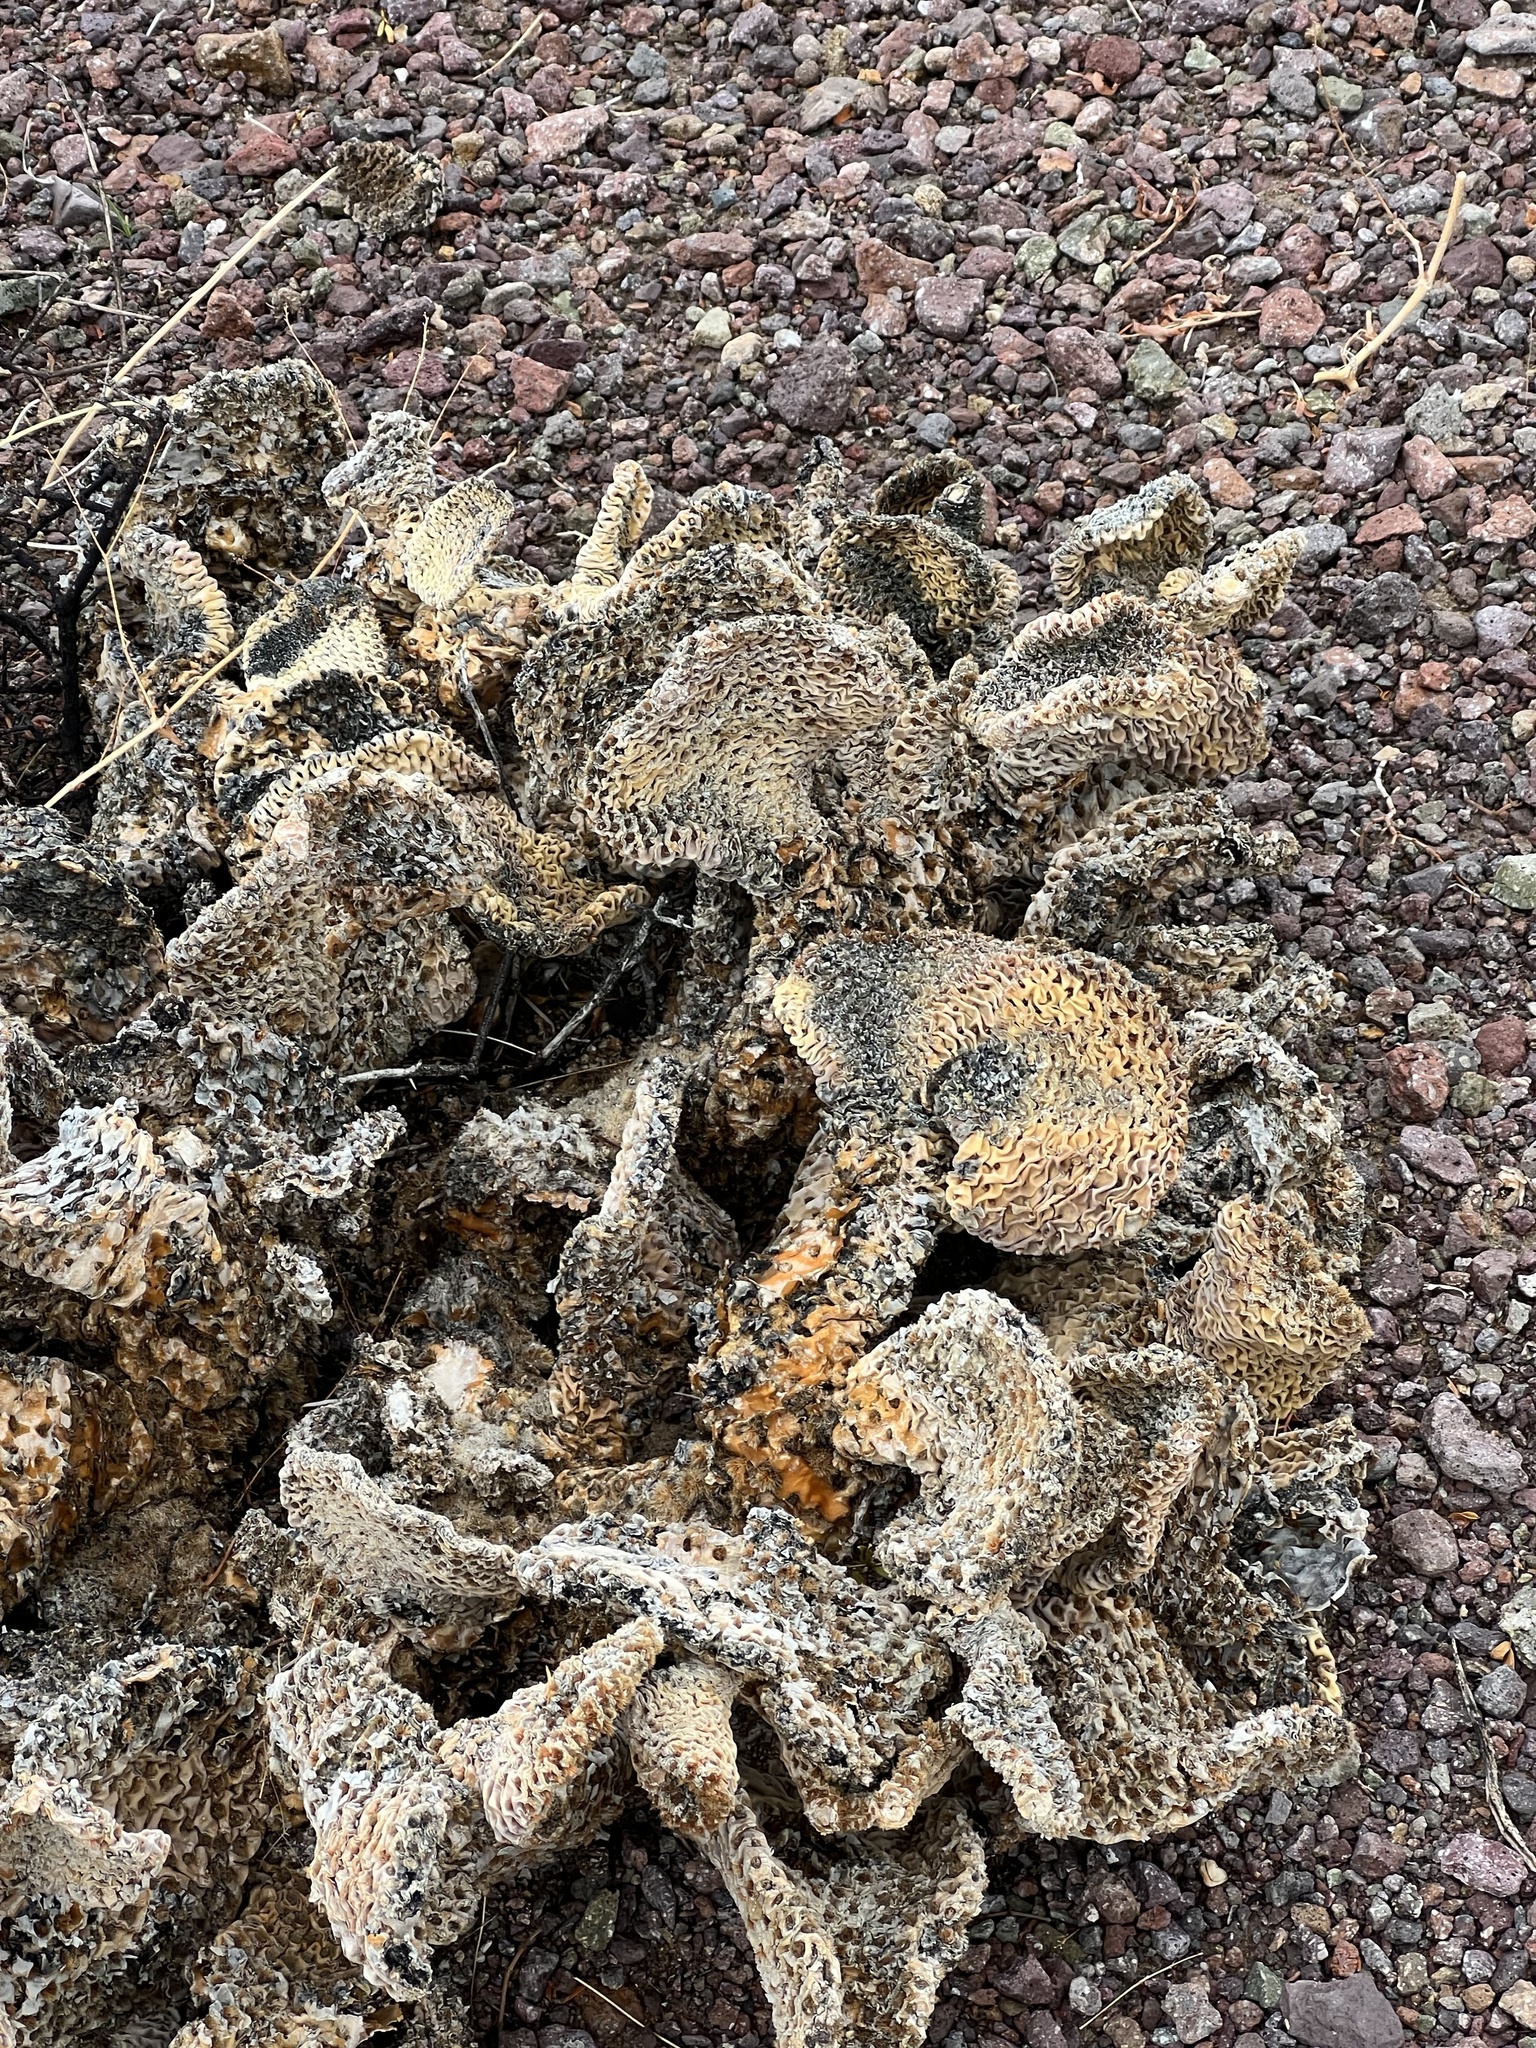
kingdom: Plantae
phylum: Tracheophyta
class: Magnoliopsida
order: Caryophyllales
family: Cactaceae
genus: Opuntia
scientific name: Opuntia basilaris
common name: Beavertail prickly-pear
